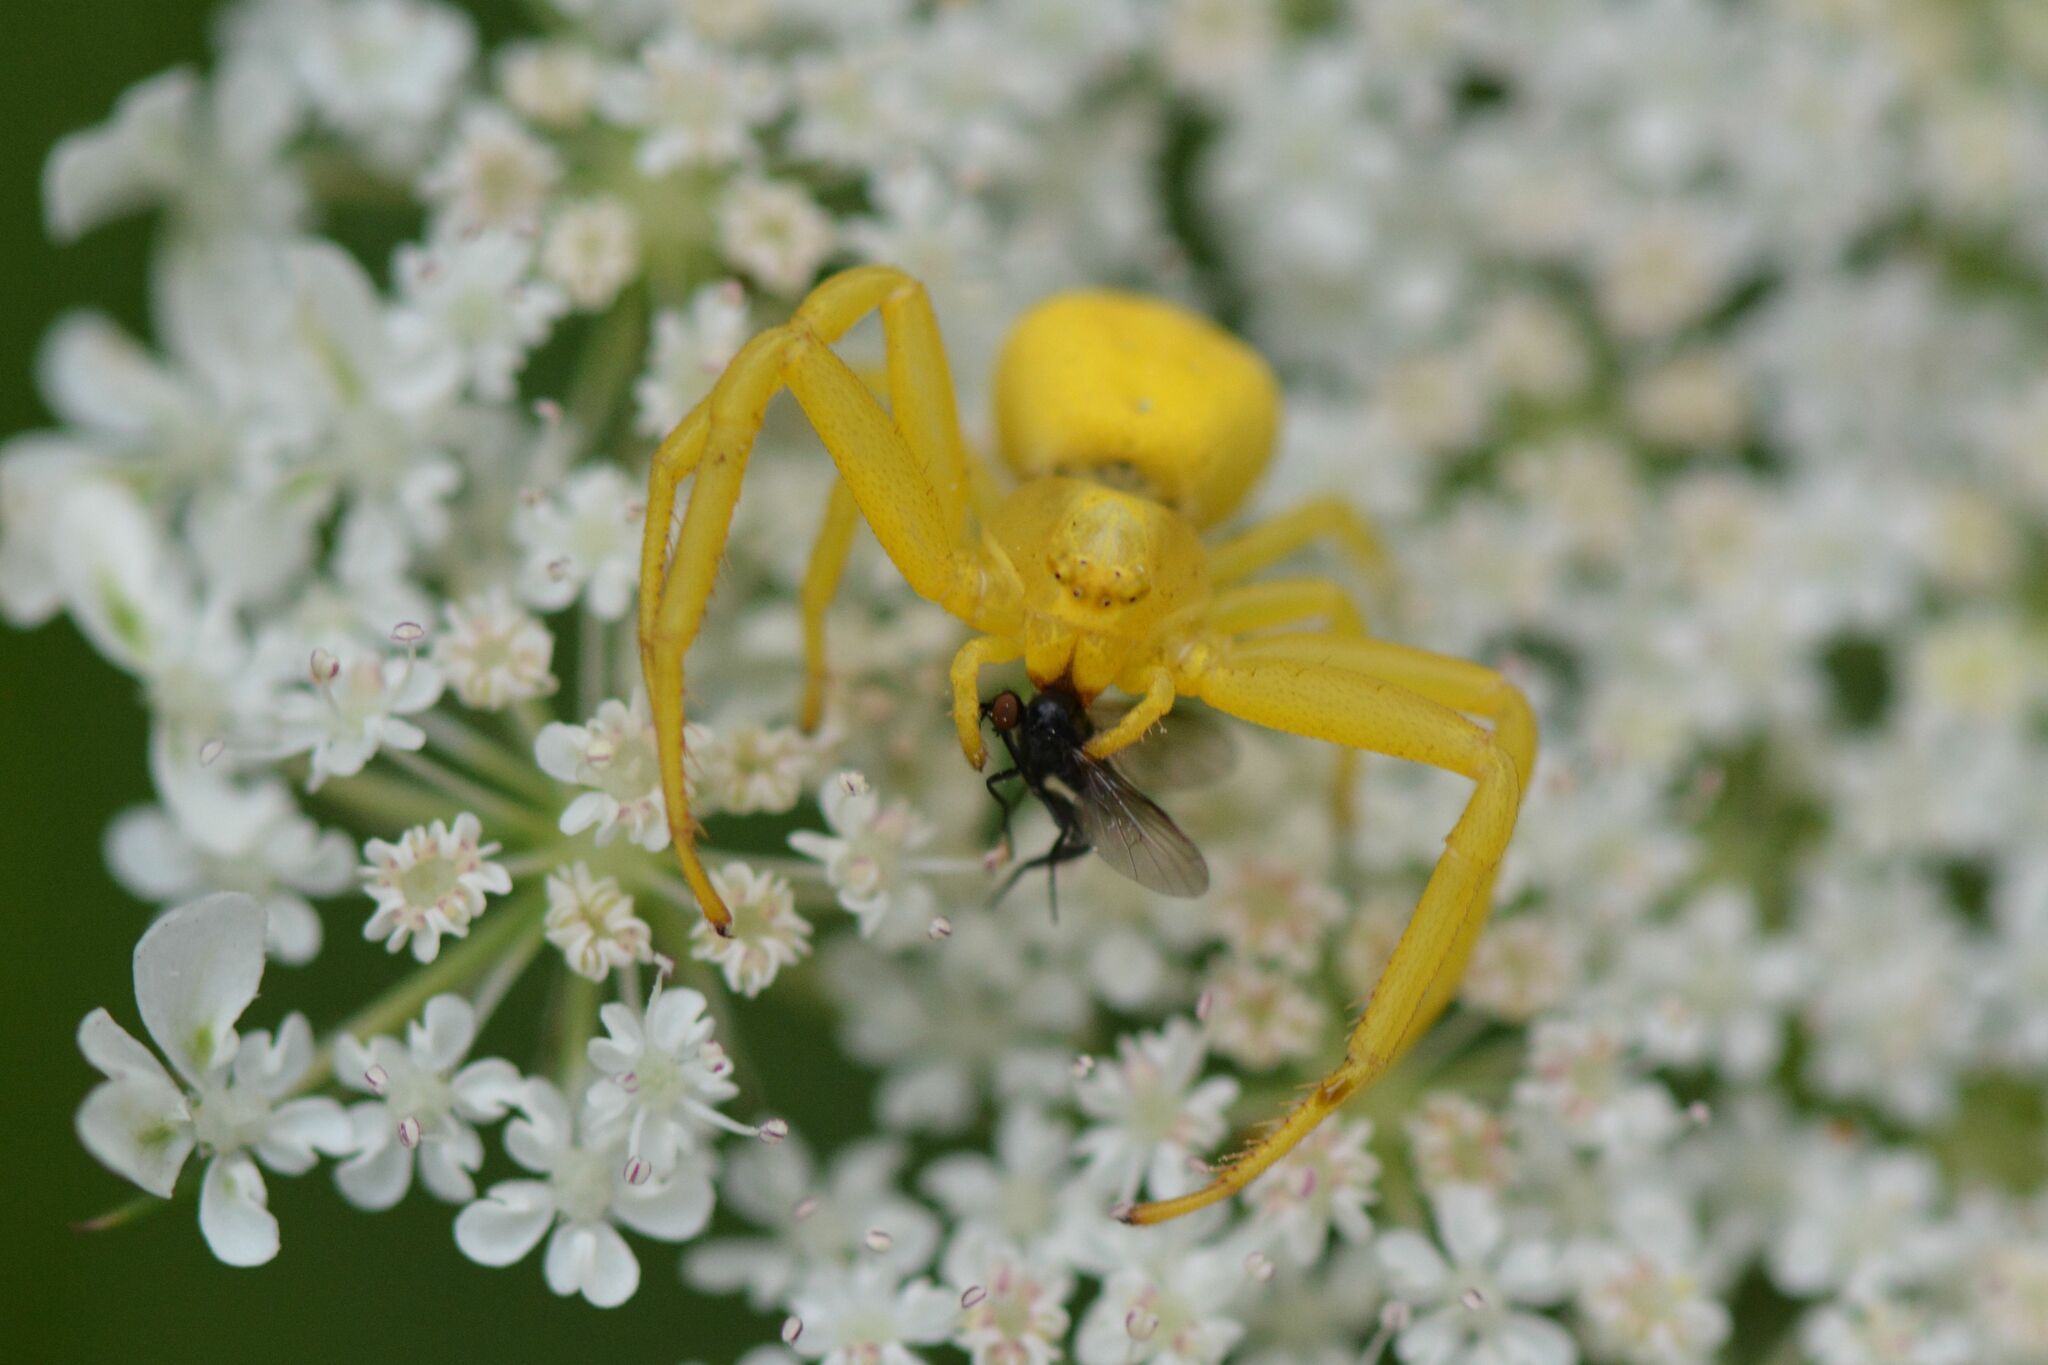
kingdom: Animalia
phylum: Arthropoda
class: Arachnida
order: Araneae
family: Thomisidae
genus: Misumena
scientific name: Misumena vatia
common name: Goldenrod crab spider
